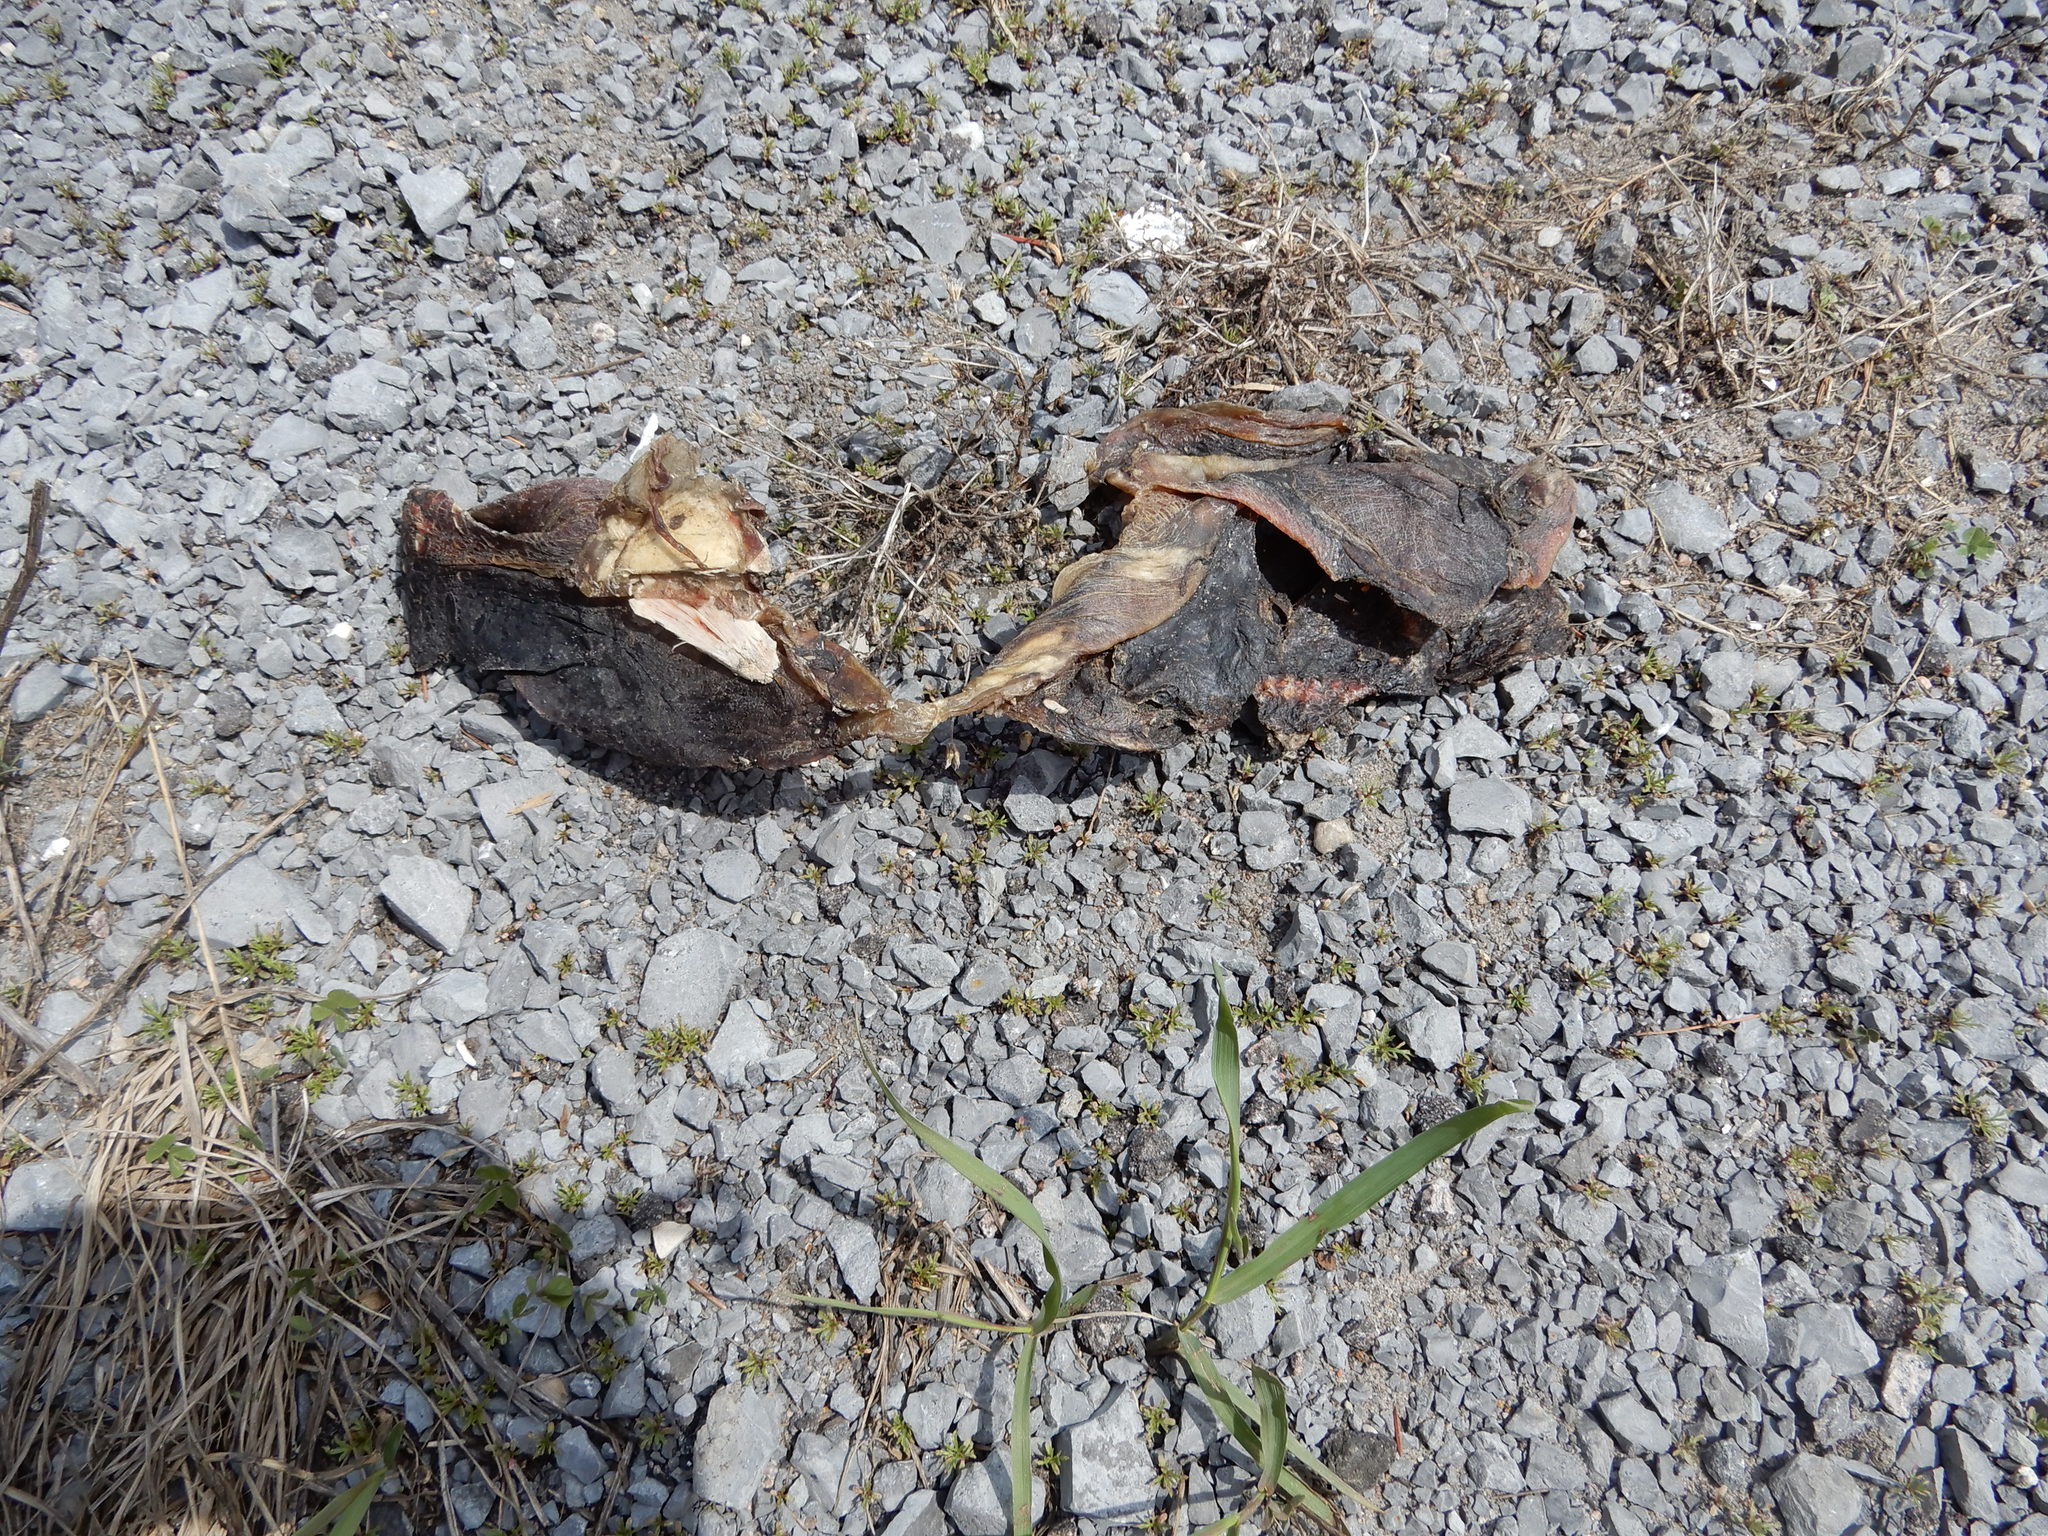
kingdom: Animalia
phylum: Chordata
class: Testudines
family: Chelydridae
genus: Chelydra
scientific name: Chelydra serpentina
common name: Common snapping turtle
